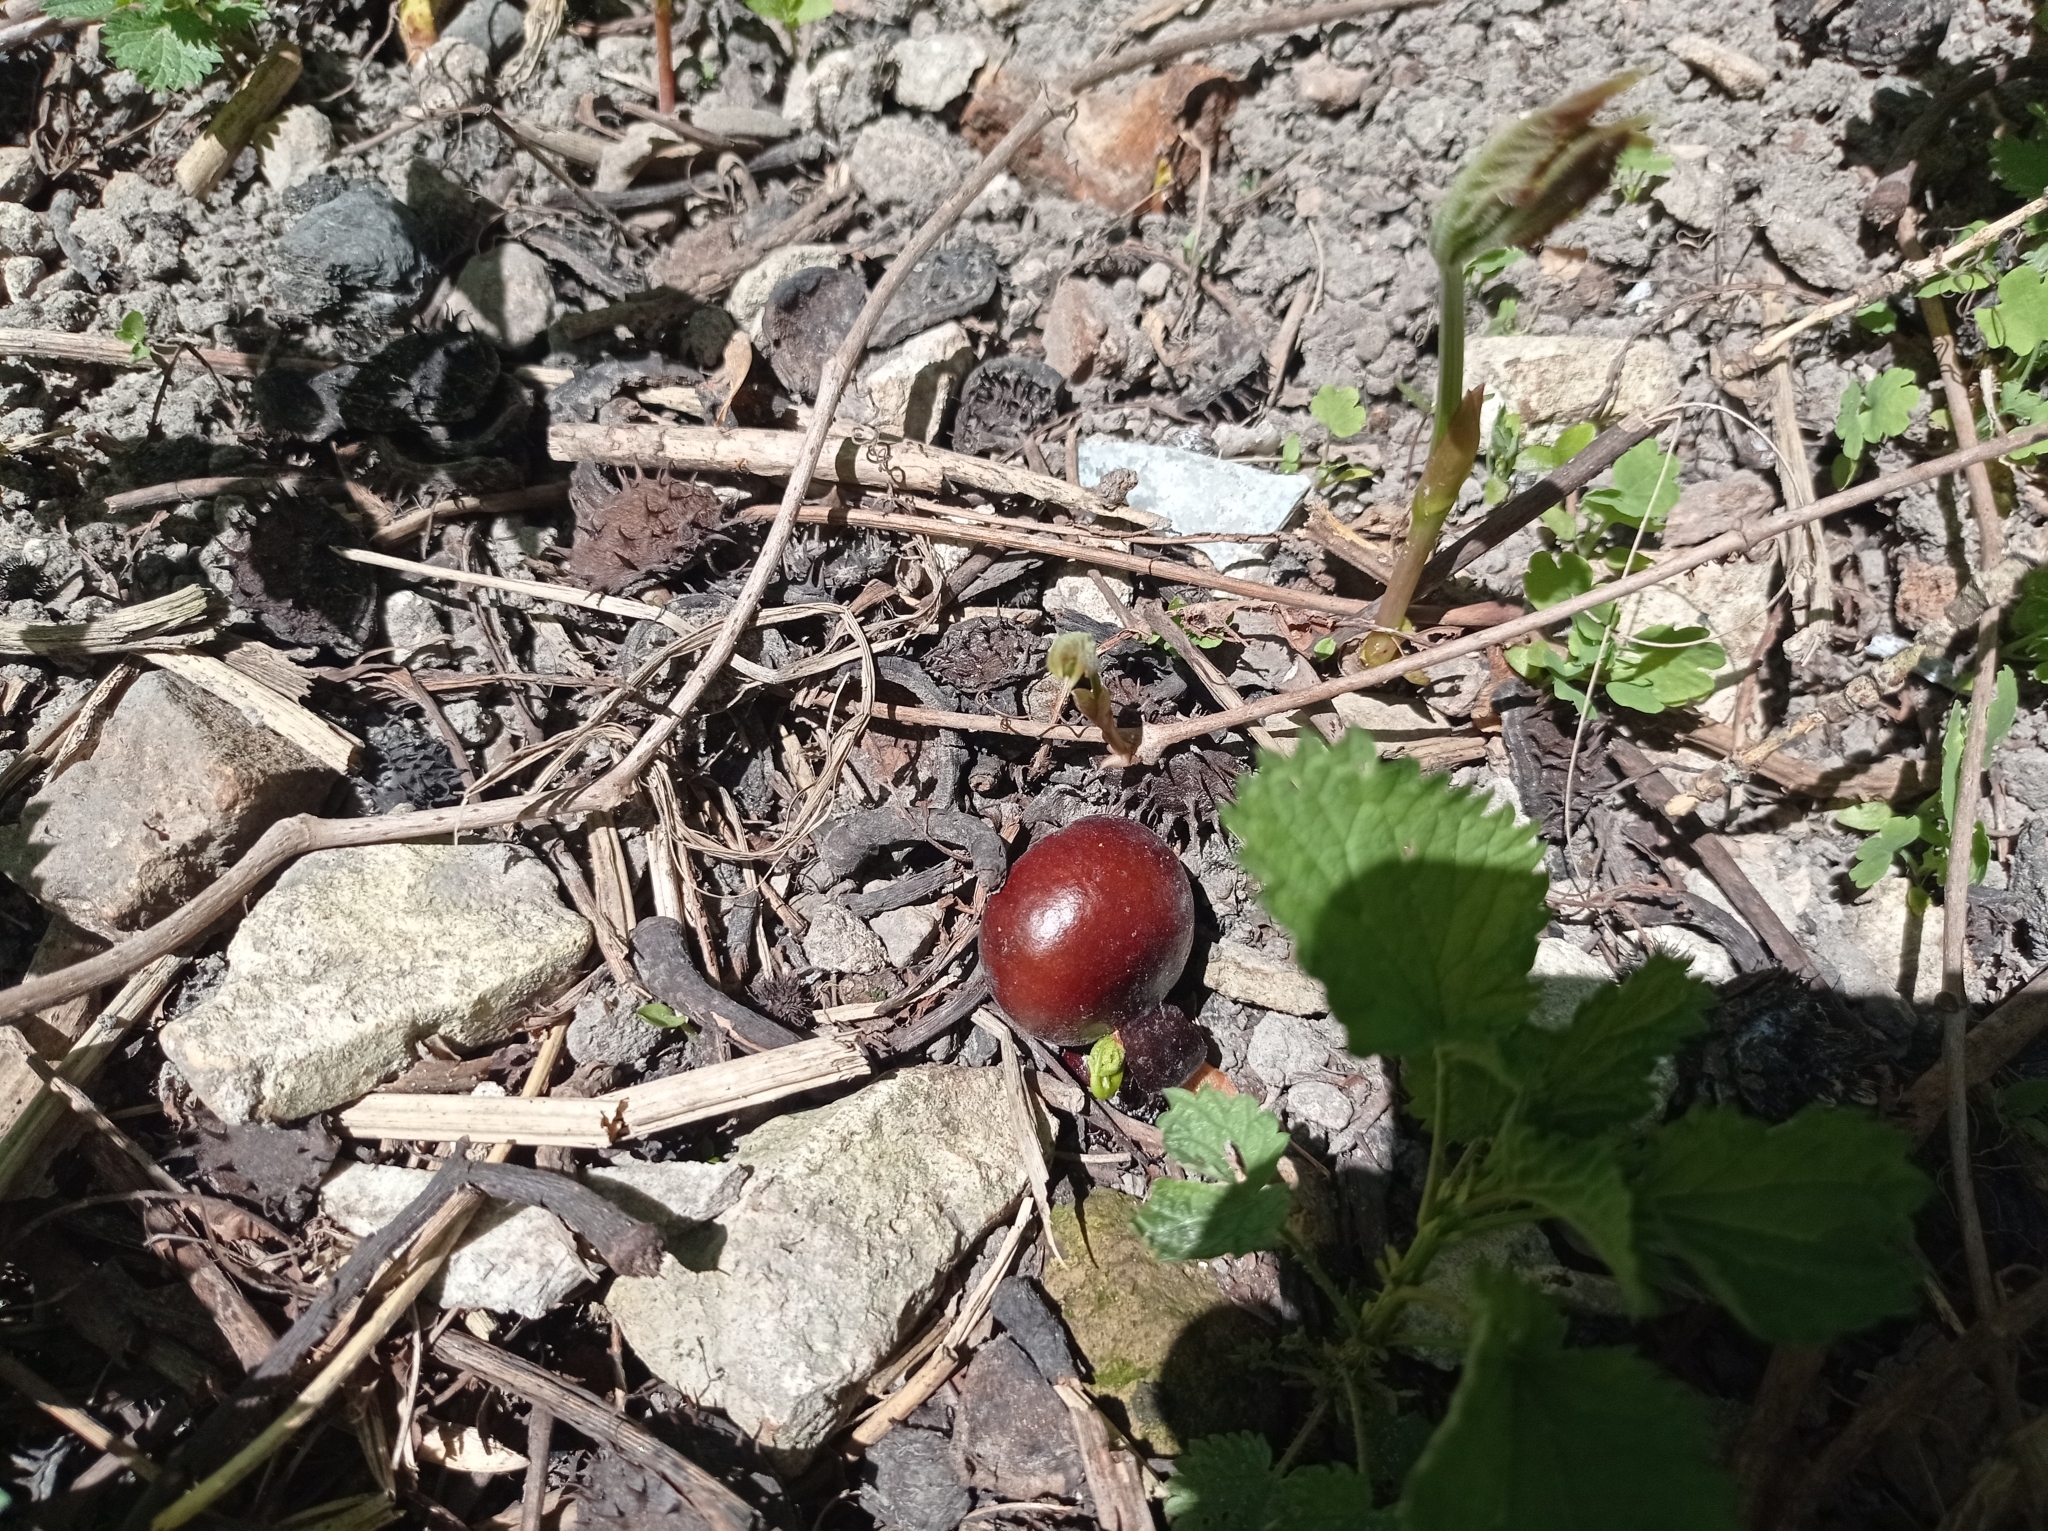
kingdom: Plantae
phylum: Tracheophyta
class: Magnoliopsida
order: Sapindales
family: Sapindaceae
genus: Aesculus
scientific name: Aesculus hippocastanum
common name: Horse-chestnut
